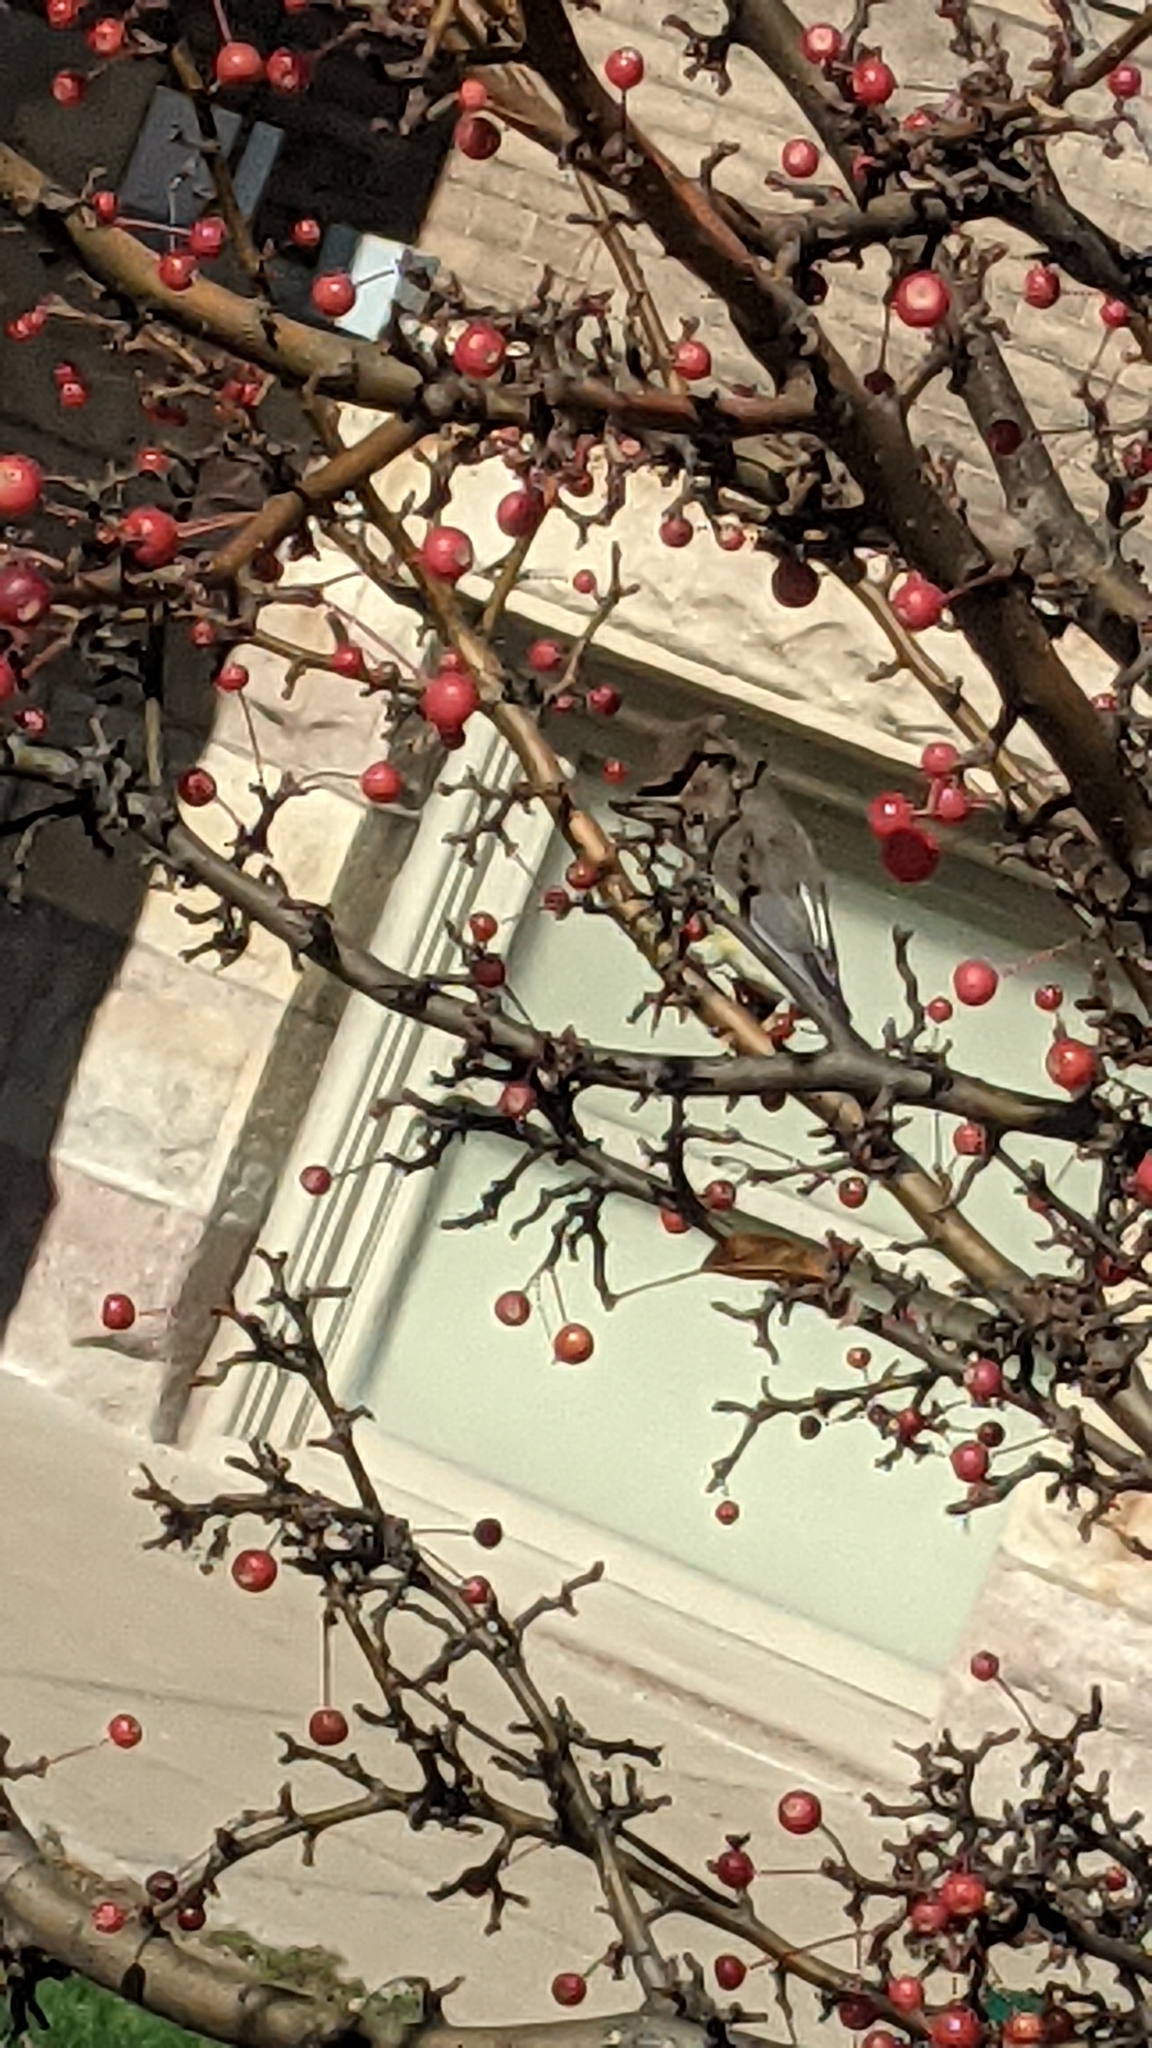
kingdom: Animalia
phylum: Chordata
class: Aves
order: Passeriformes
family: Bombycillidae
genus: Bombycilla
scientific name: Bombycilla cedrorum
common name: Cedar waxwing
